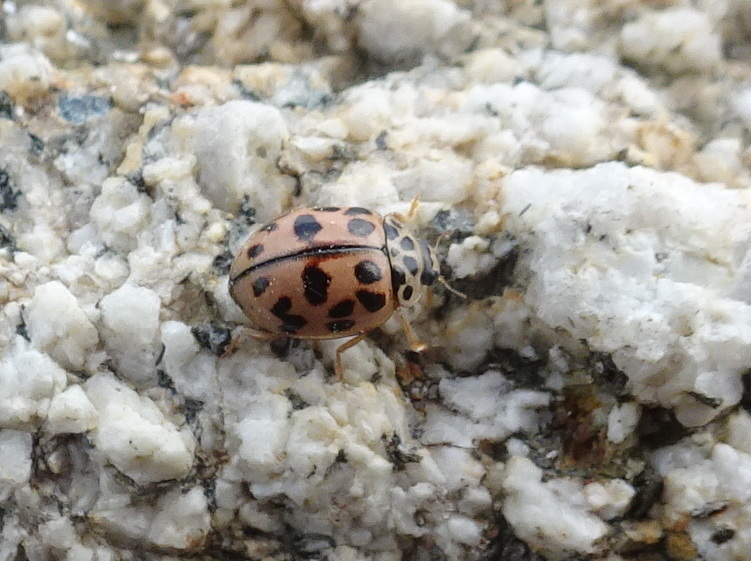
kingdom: Animalia
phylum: Arthropoda
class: Insecta
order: Coleoptera
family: Coccinellidae
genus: Oenopia
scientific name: Oenopia conglobata
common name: Ladybird beetle
